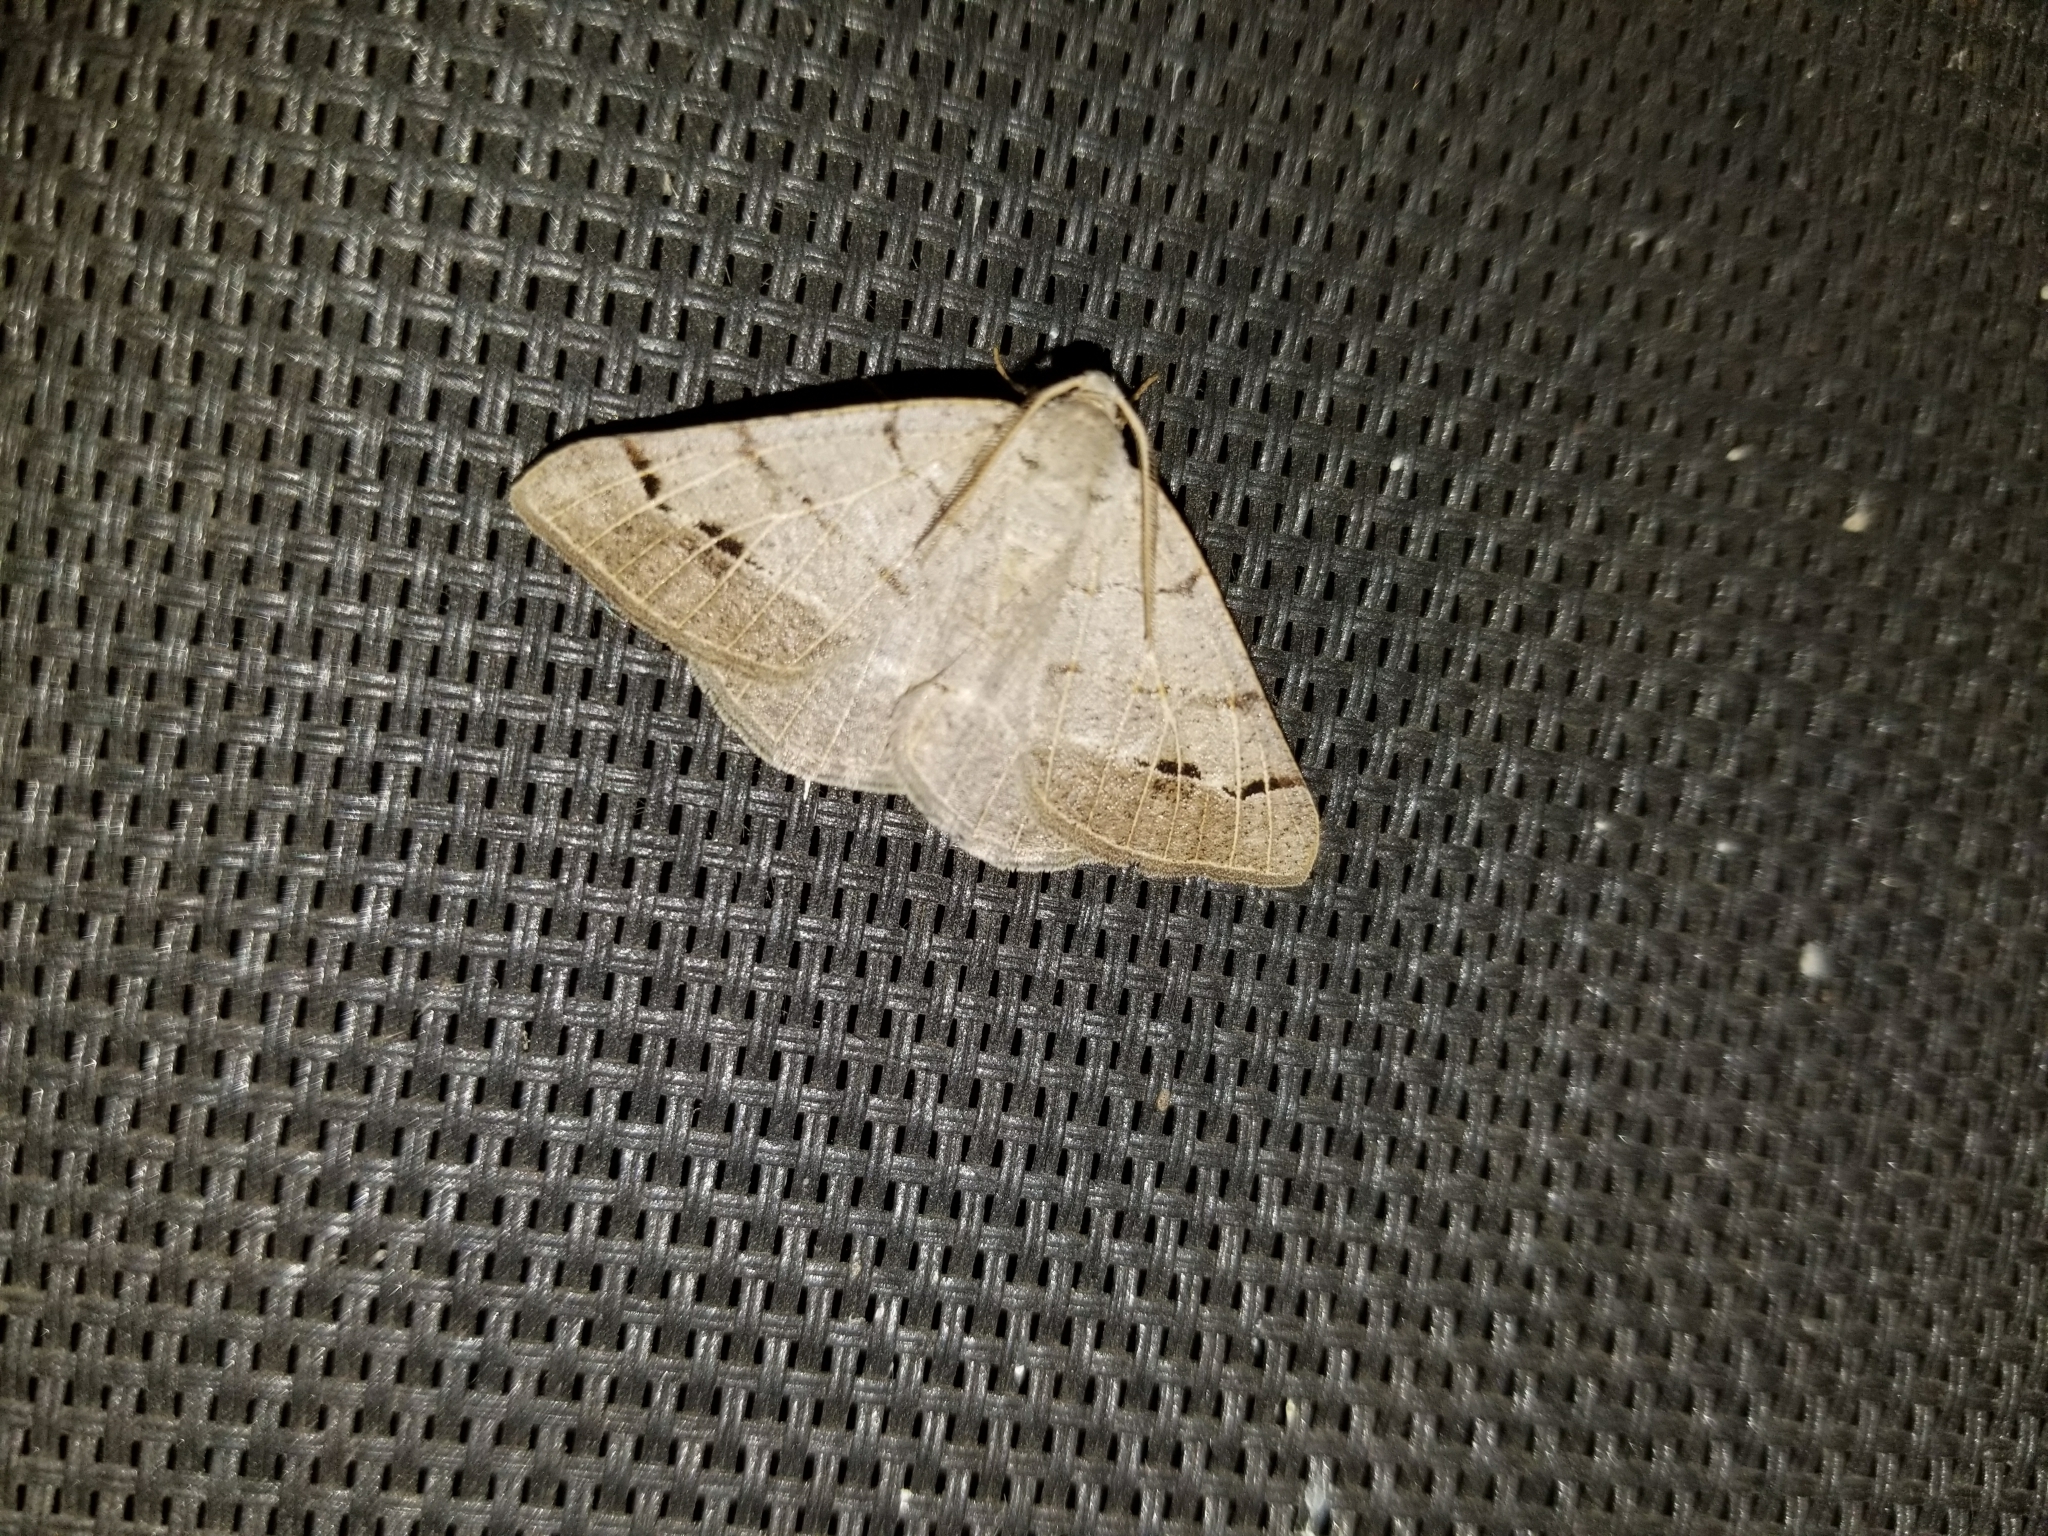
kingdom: Animalia
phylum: Arthropoda
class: Insecta
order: Lepidoptera
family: Geometridae
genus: Isturgia
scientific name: Isturgia dislocaria
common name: Pale-viened enconista
